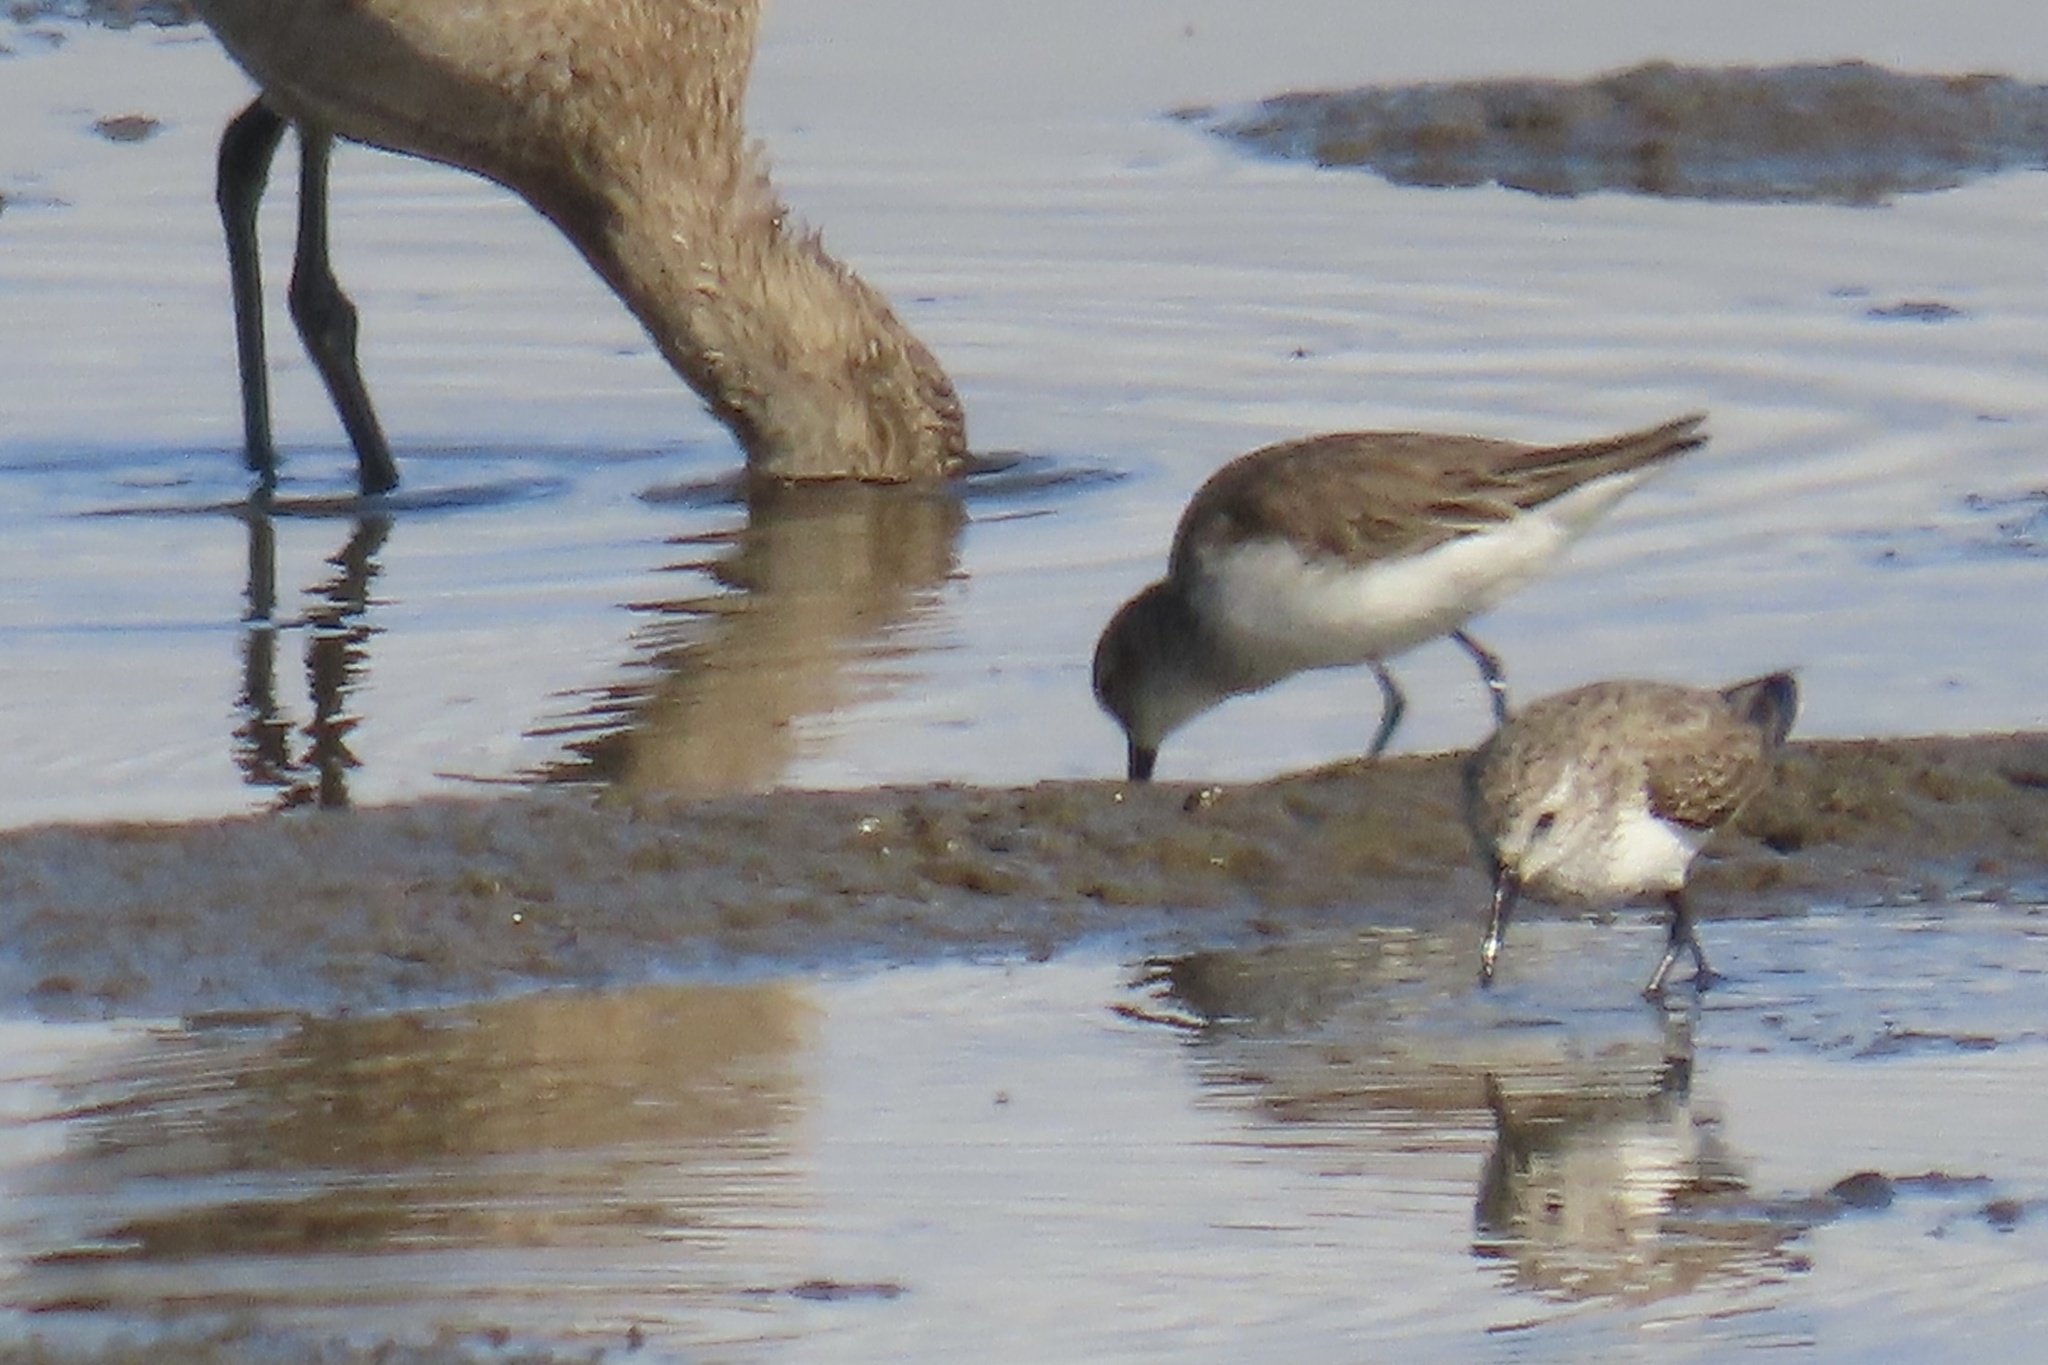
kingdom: Animalia
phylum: Chordata
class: Aves
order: Charadriiformes
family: Scolopacidae
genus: Calidris
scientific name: Calidris alpina
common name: Dunlin
